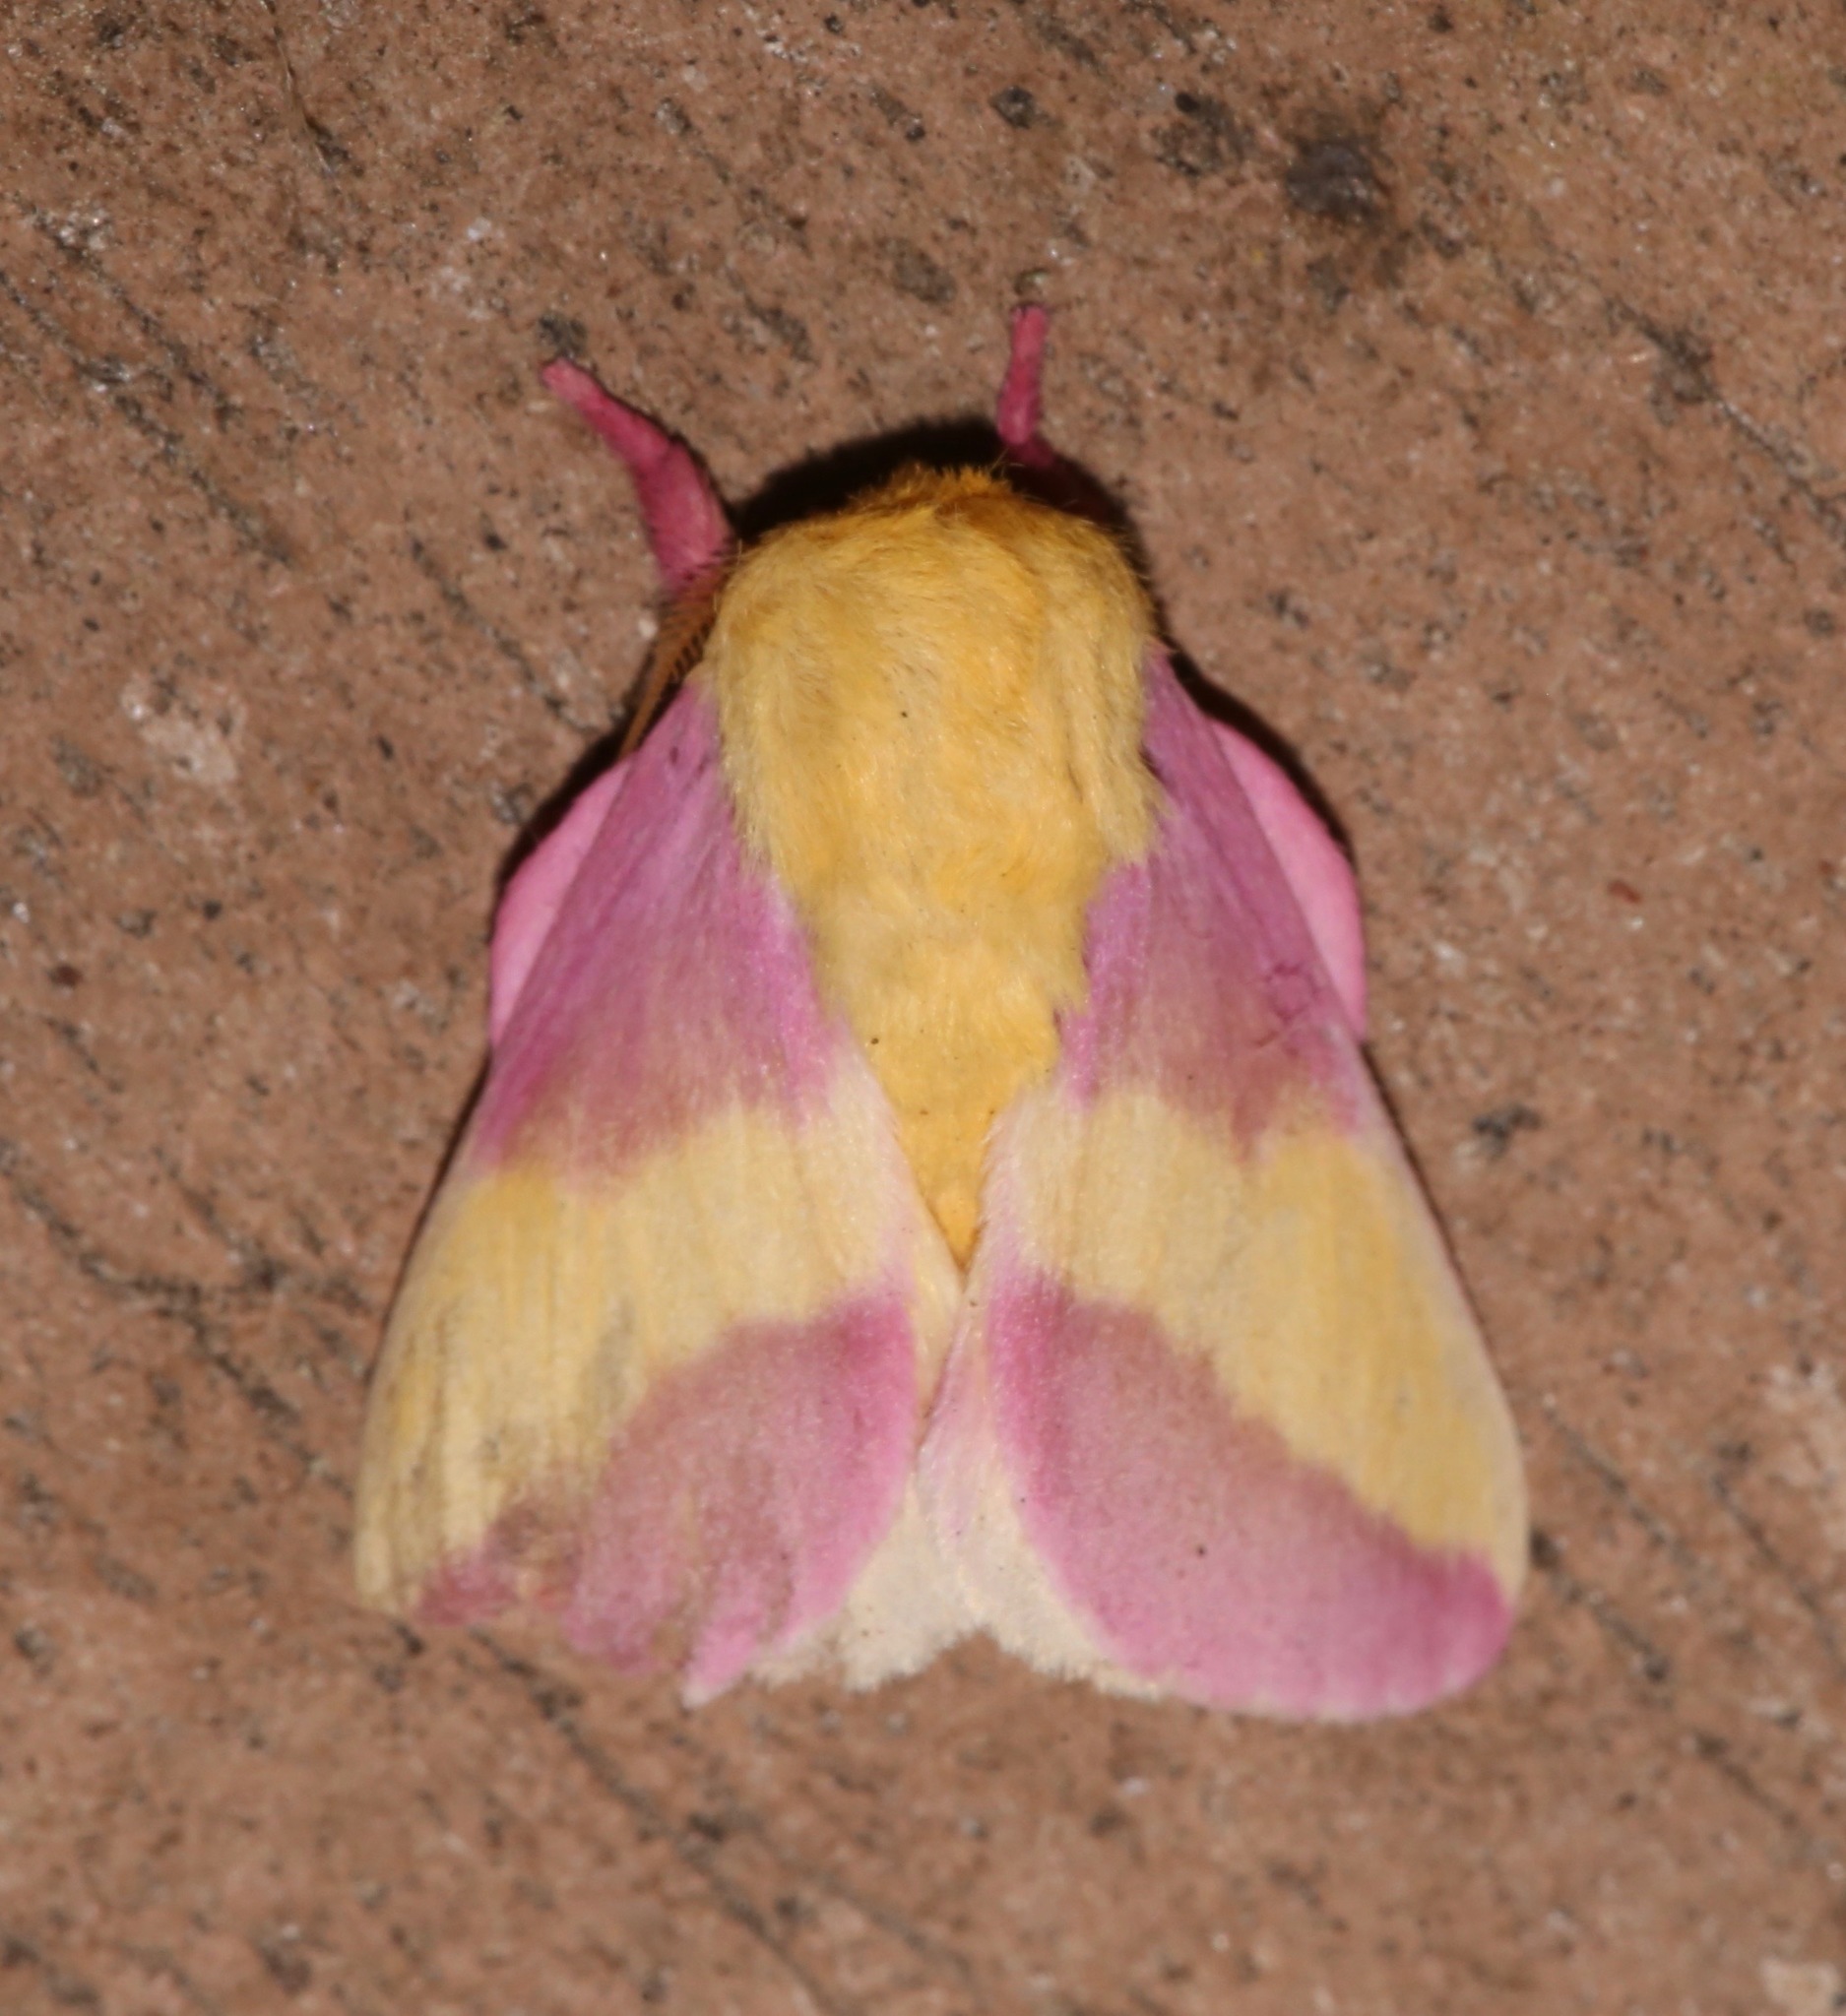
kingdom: Animalia
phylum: Arthropoda
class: Insecta
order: Lepidoptera
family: Saturniidae
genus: Dryocampa
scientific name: Dryocampa rubicunda
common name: Rosy maple moth
